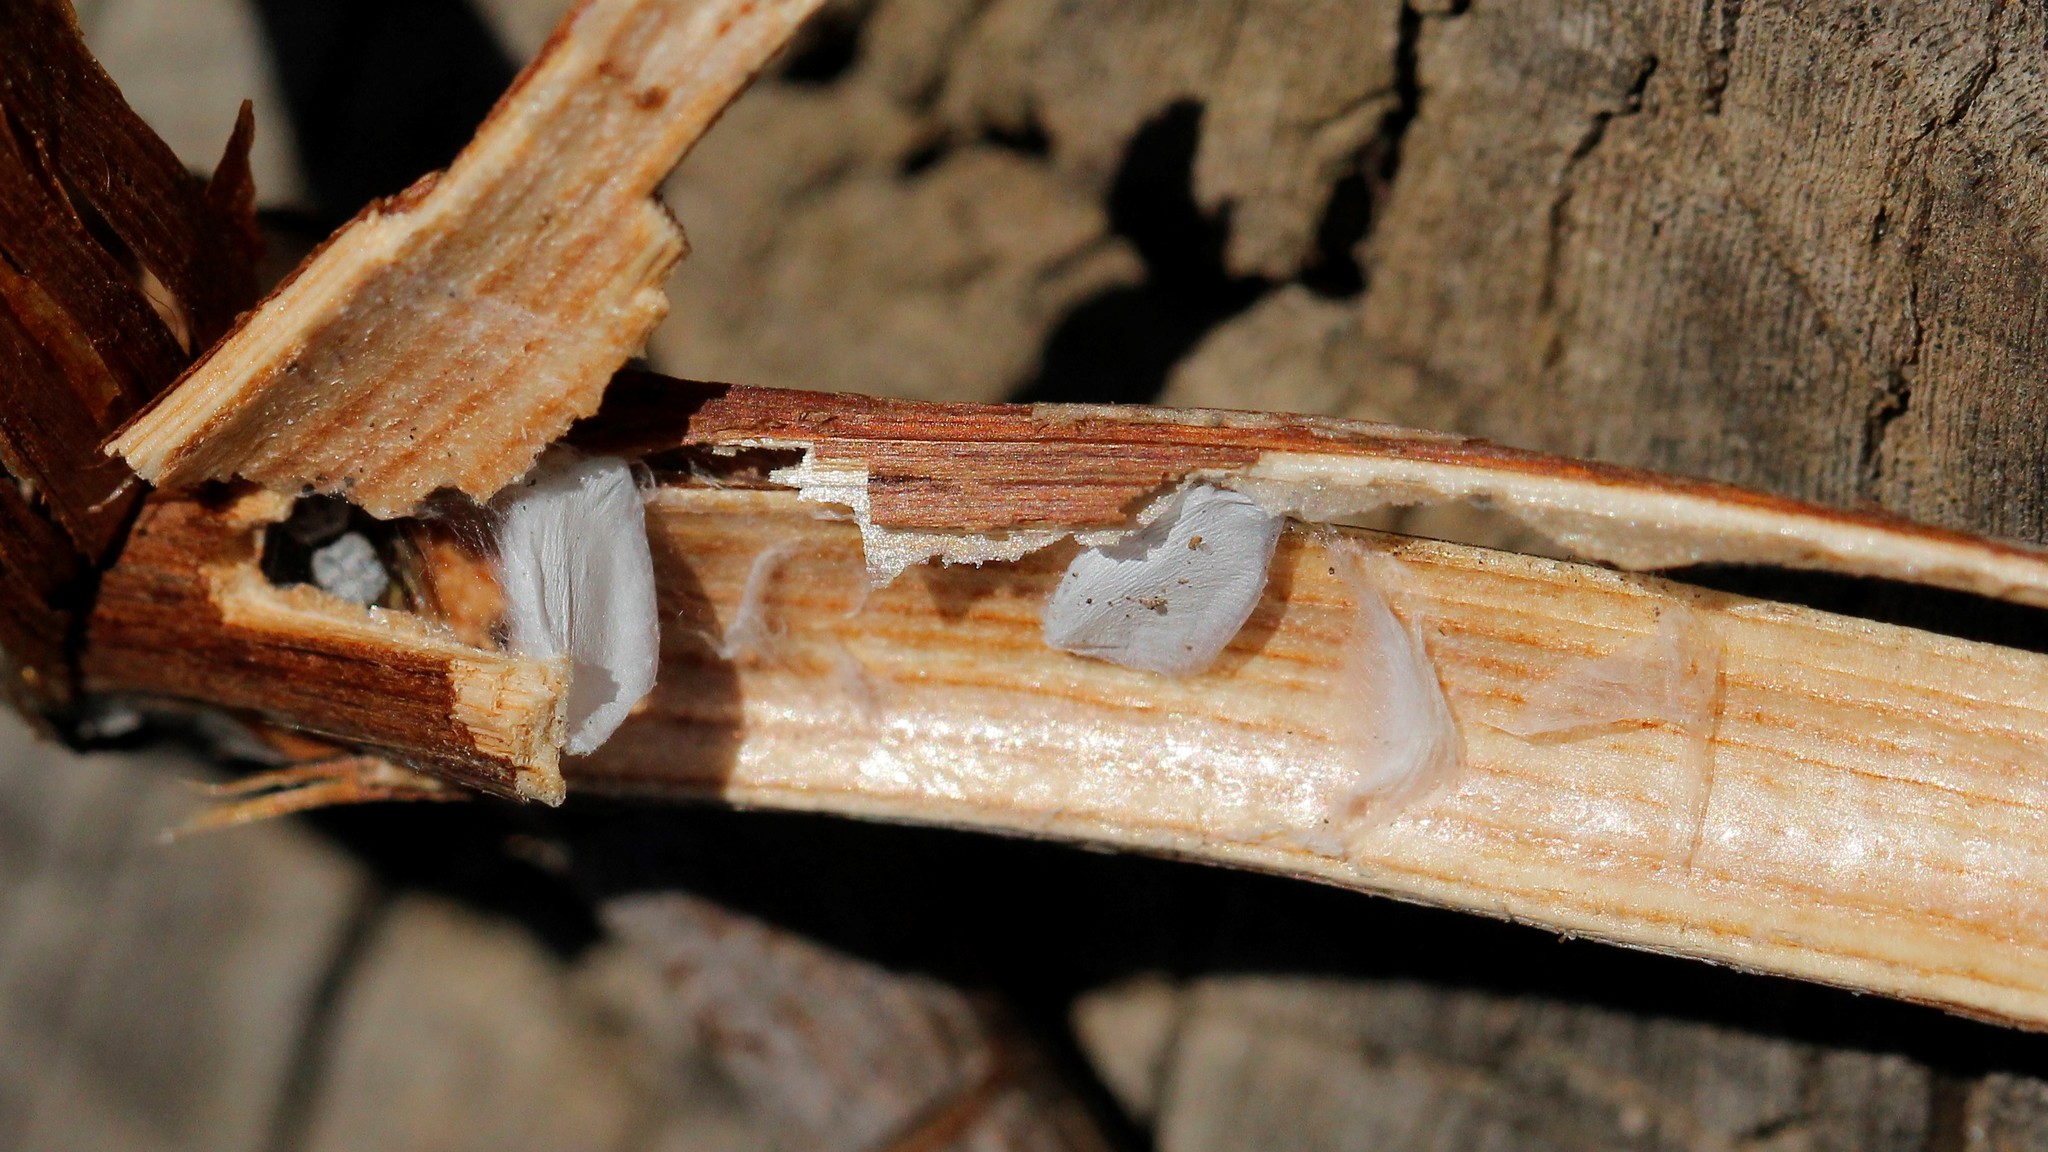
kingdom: Animalia
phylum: Arthropoda
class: Arachnida
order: Araneae
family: Salticidae
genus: Heliophanus
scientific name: Heliophanus simplex
